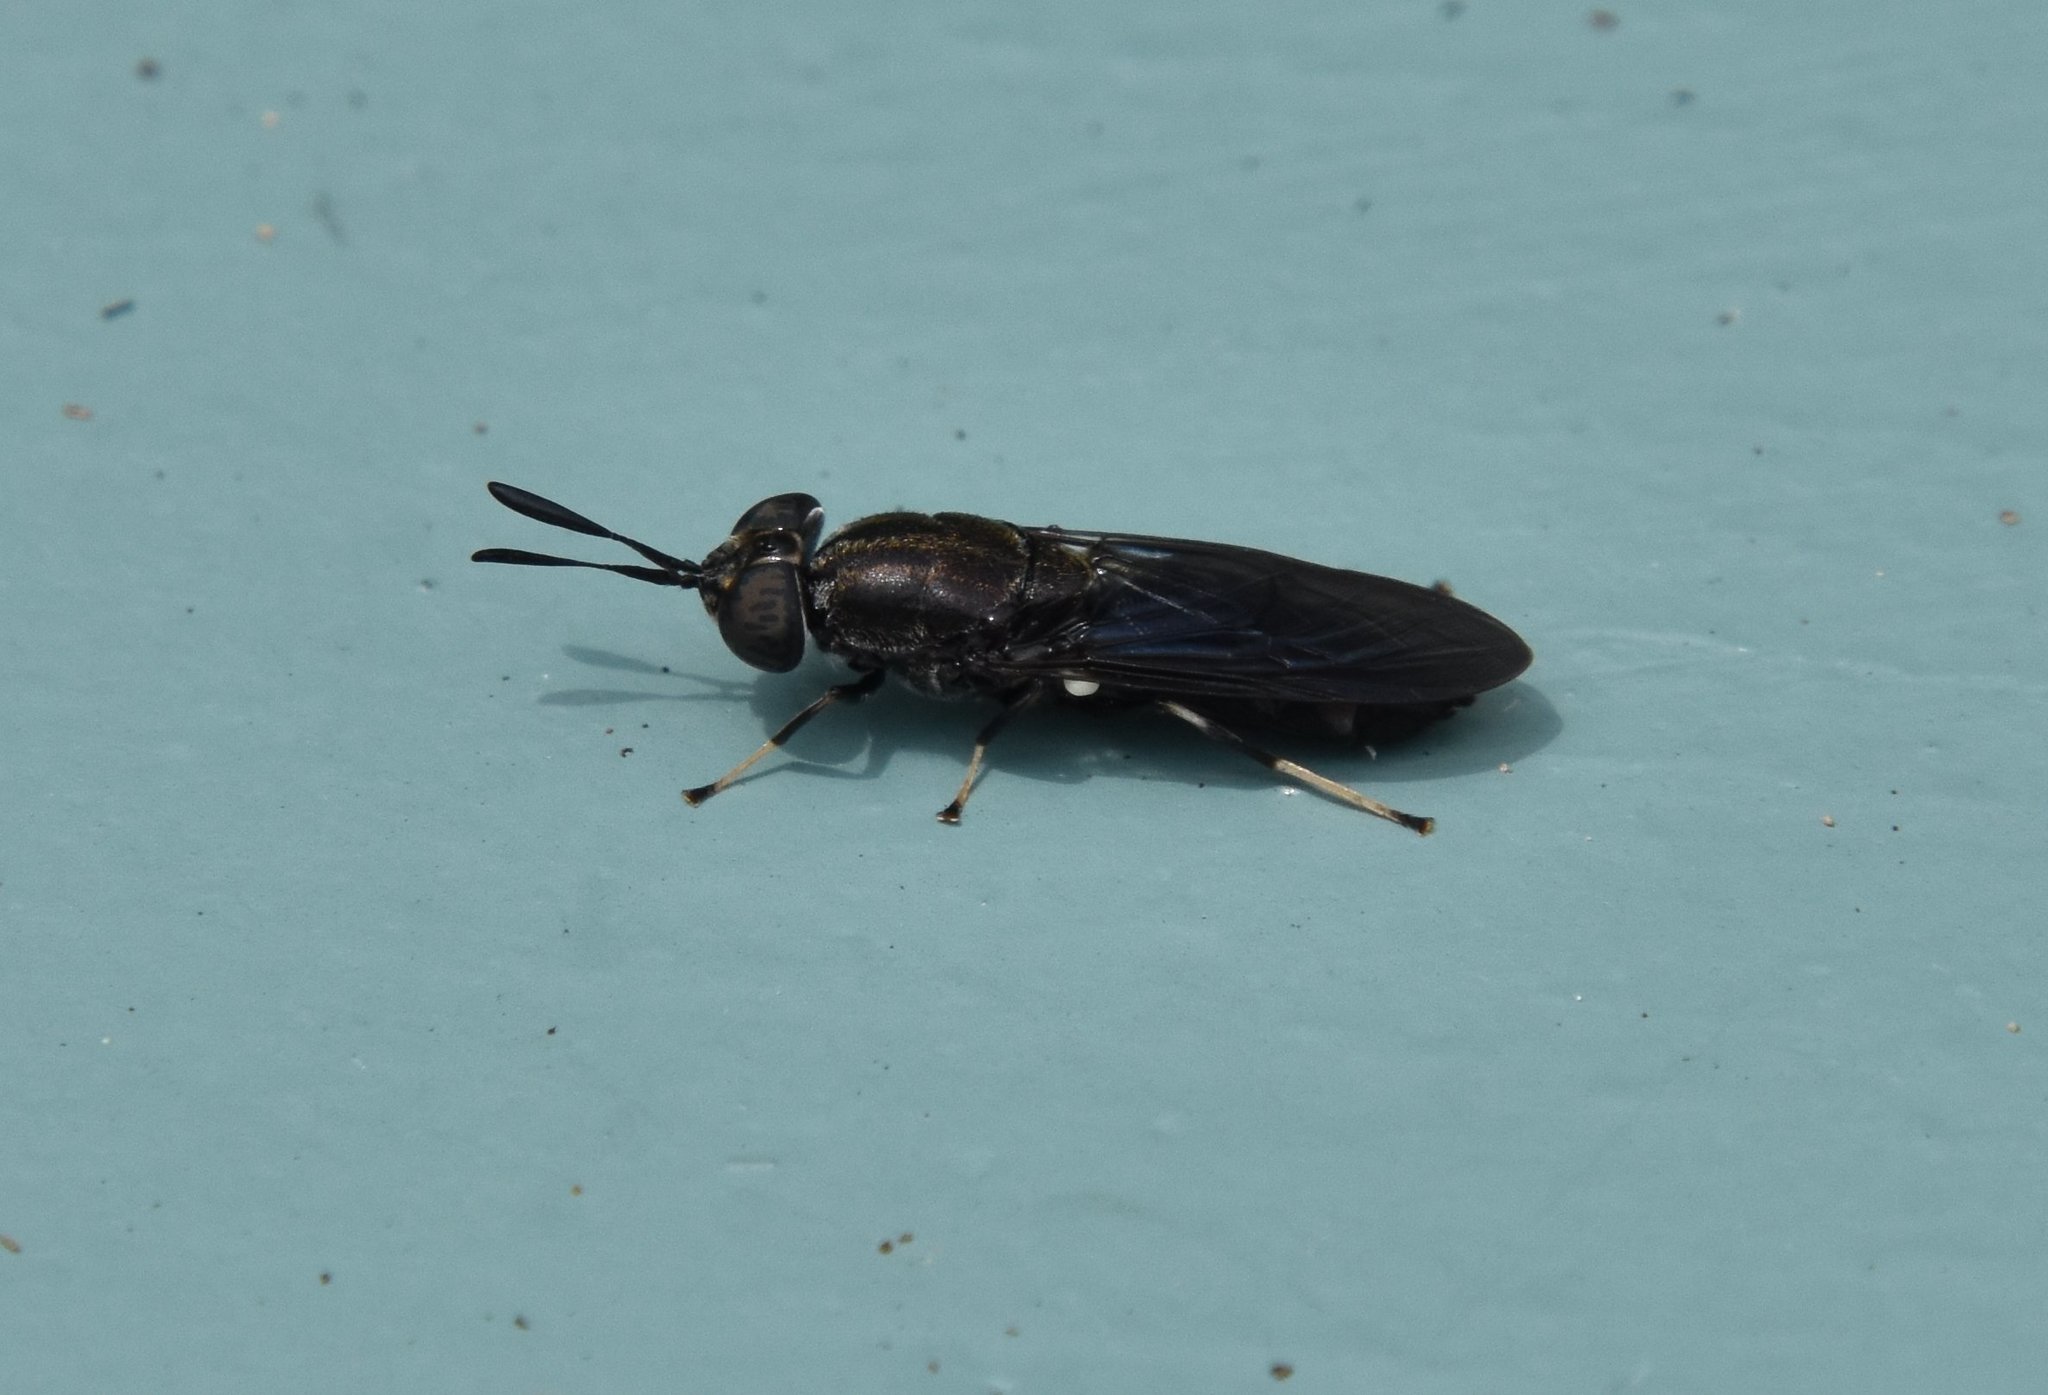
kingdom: Animalia
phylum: Arthropoda
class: Insecta
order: Diptera
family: Stratiomyidae
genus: Hermetia
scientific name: Hermetia sexmaculata
